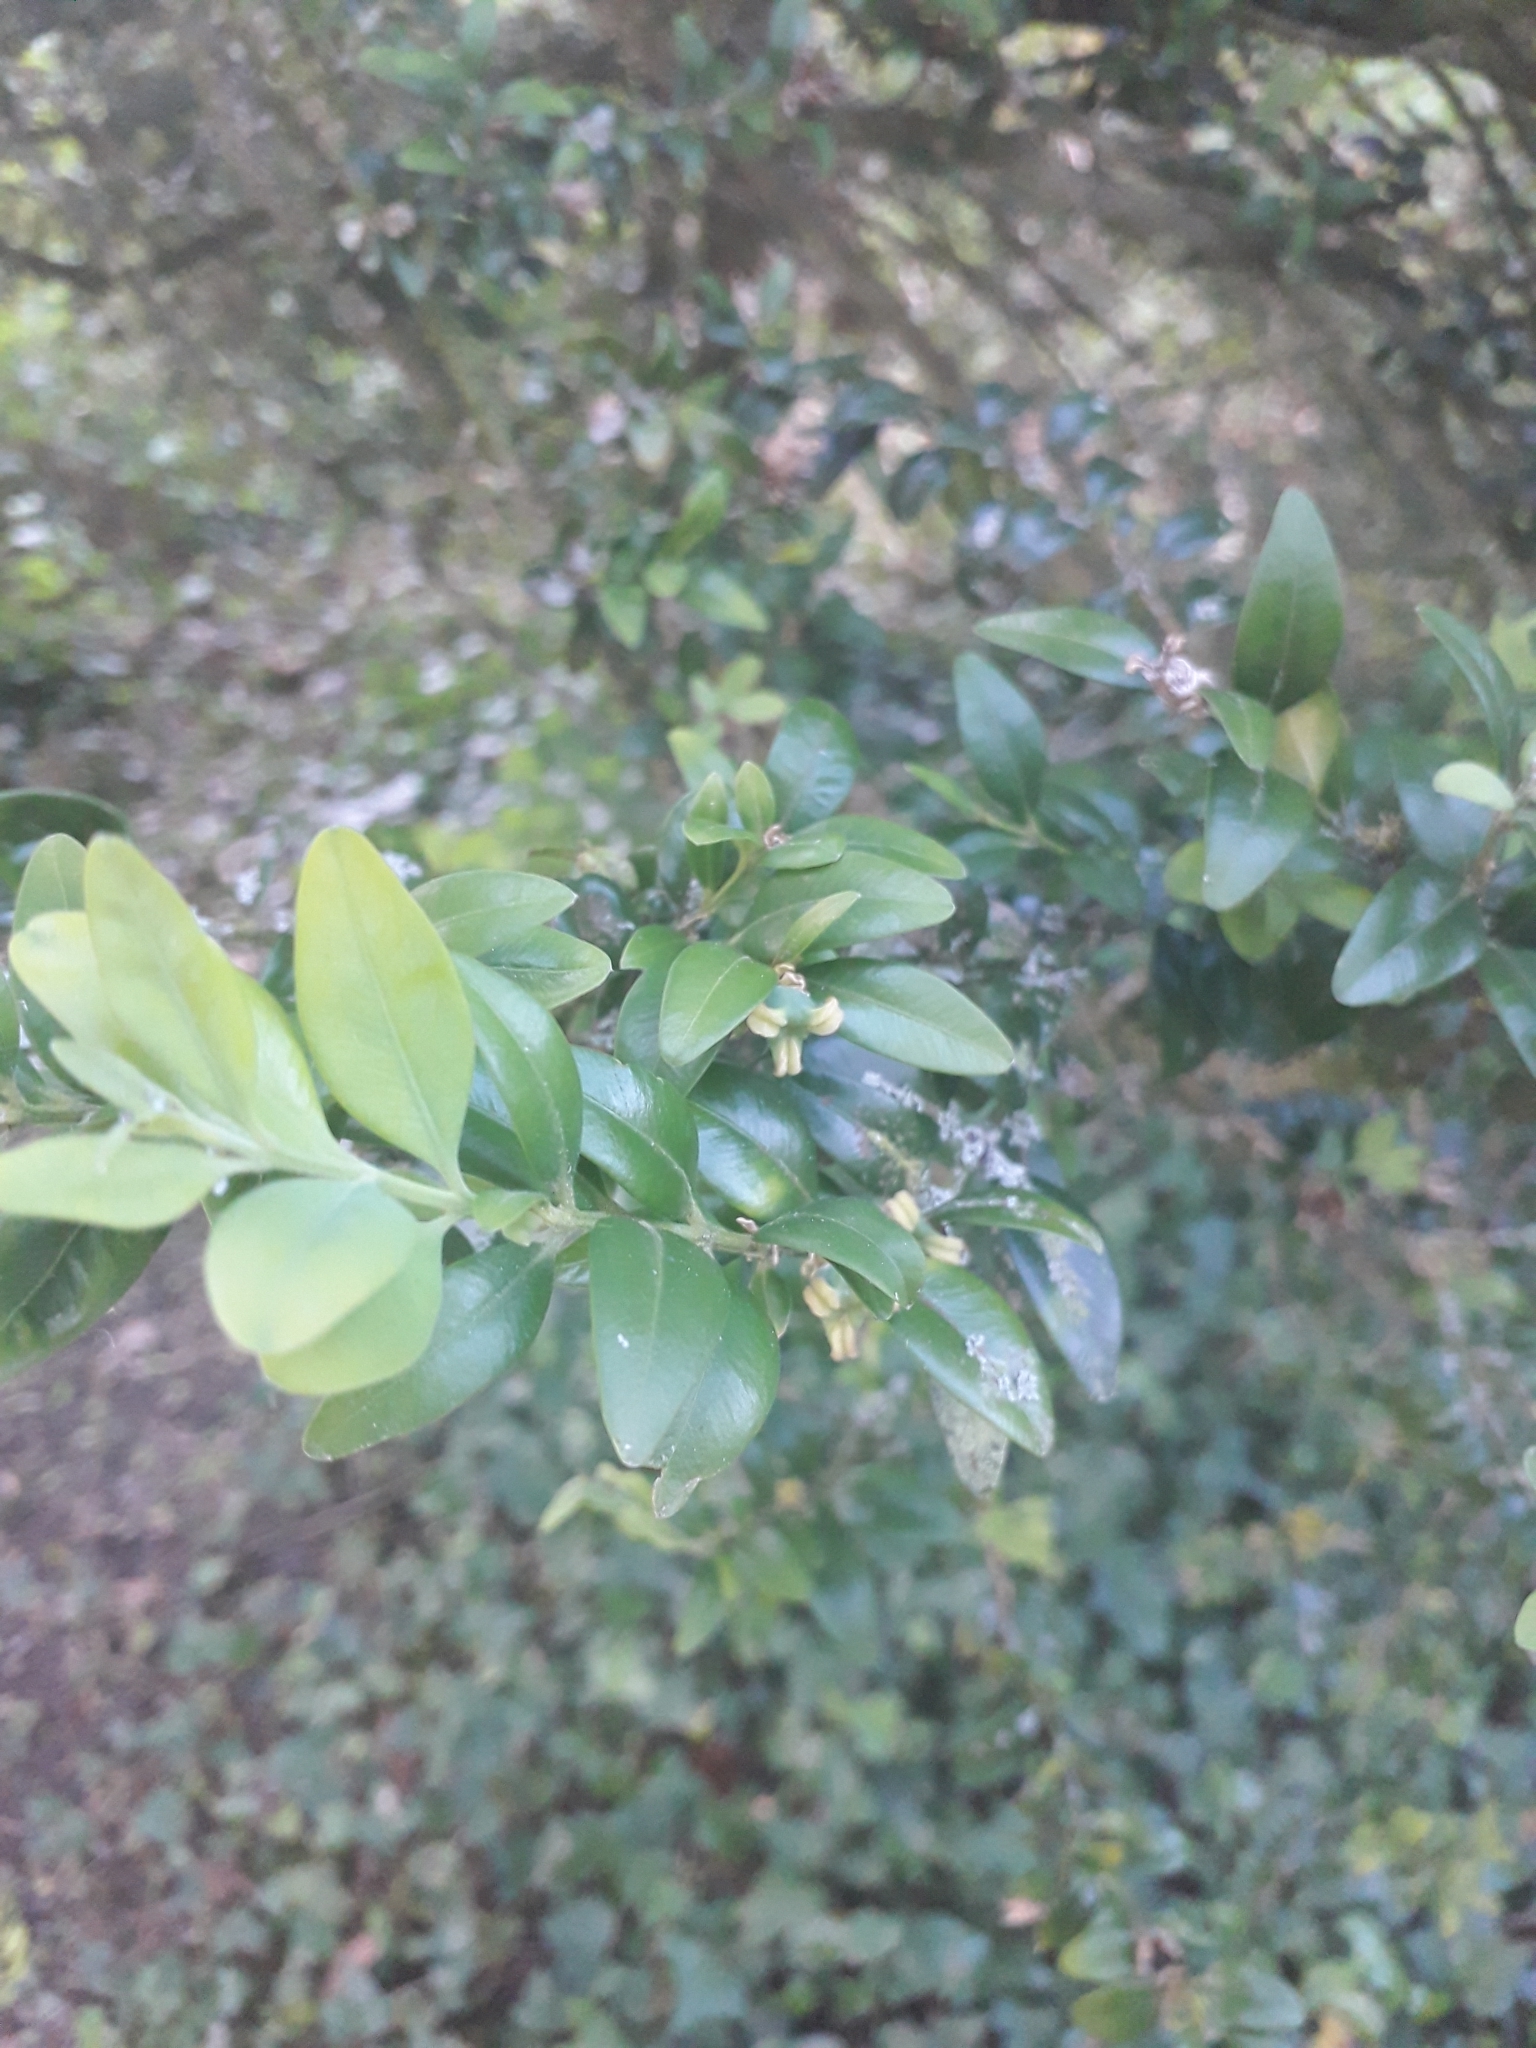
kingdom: Plantae
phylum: Tracheophyta
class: Magnoliopsida
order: Buxales
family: Buxaceae
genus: Buxus
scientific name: Buxus sempervirens
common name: Box
